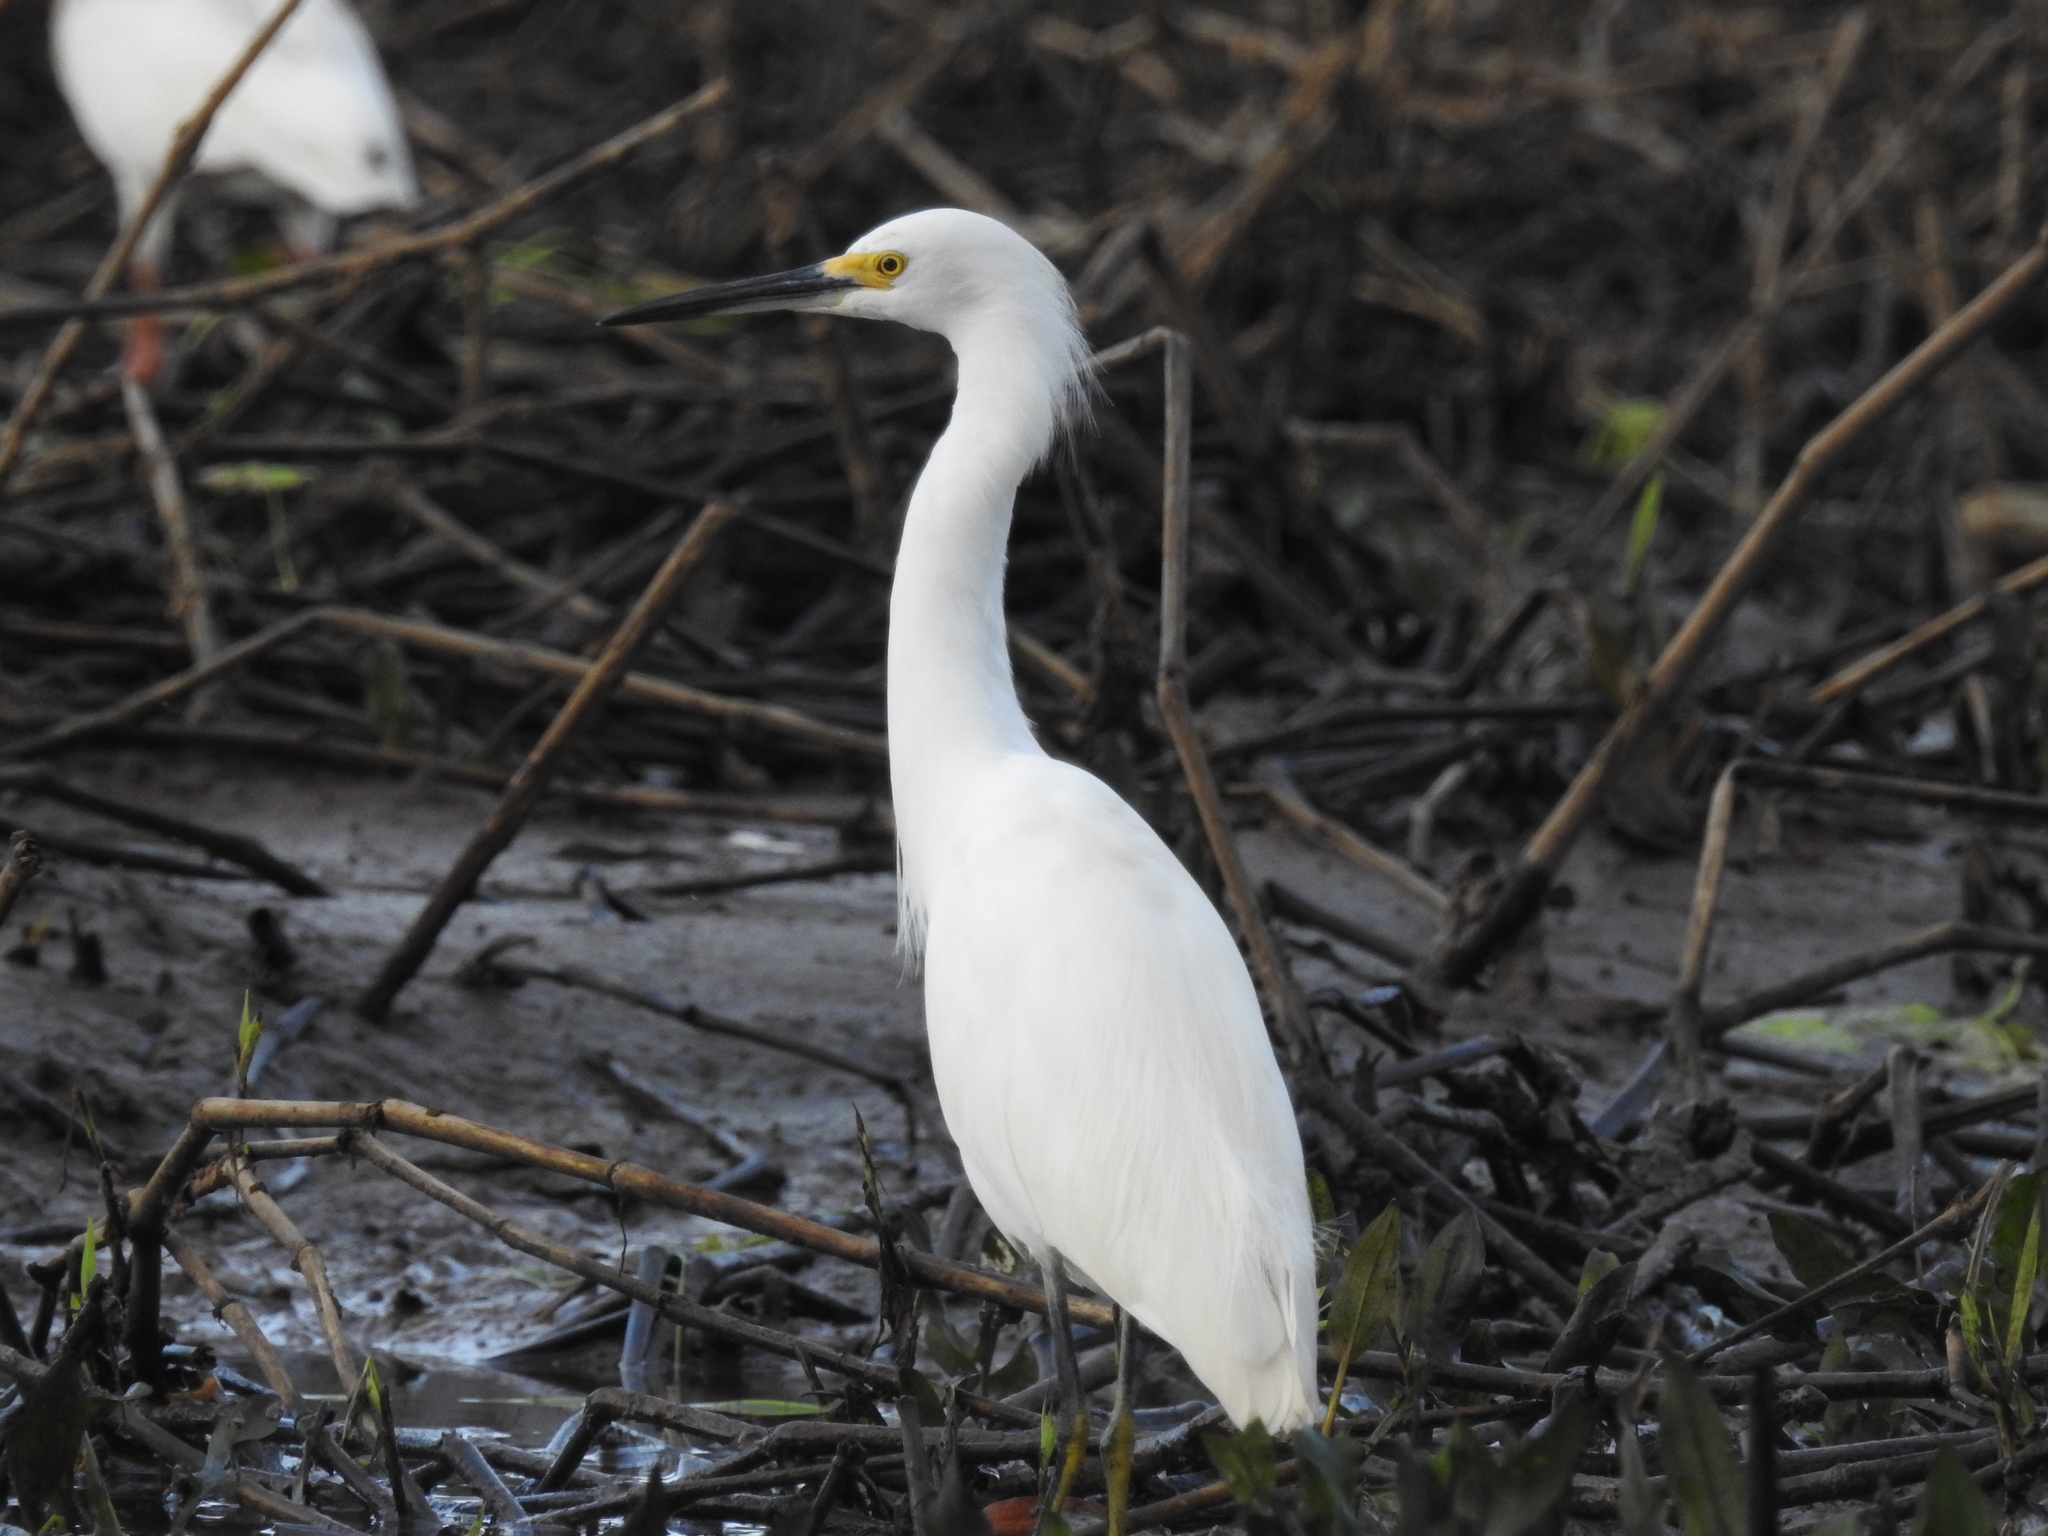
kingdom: Animalia
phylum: Chordata
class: Aves
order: Pelecaniformes
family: Ardeidae
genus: Egretta
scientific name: Egretta thula
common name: Snowy egret
